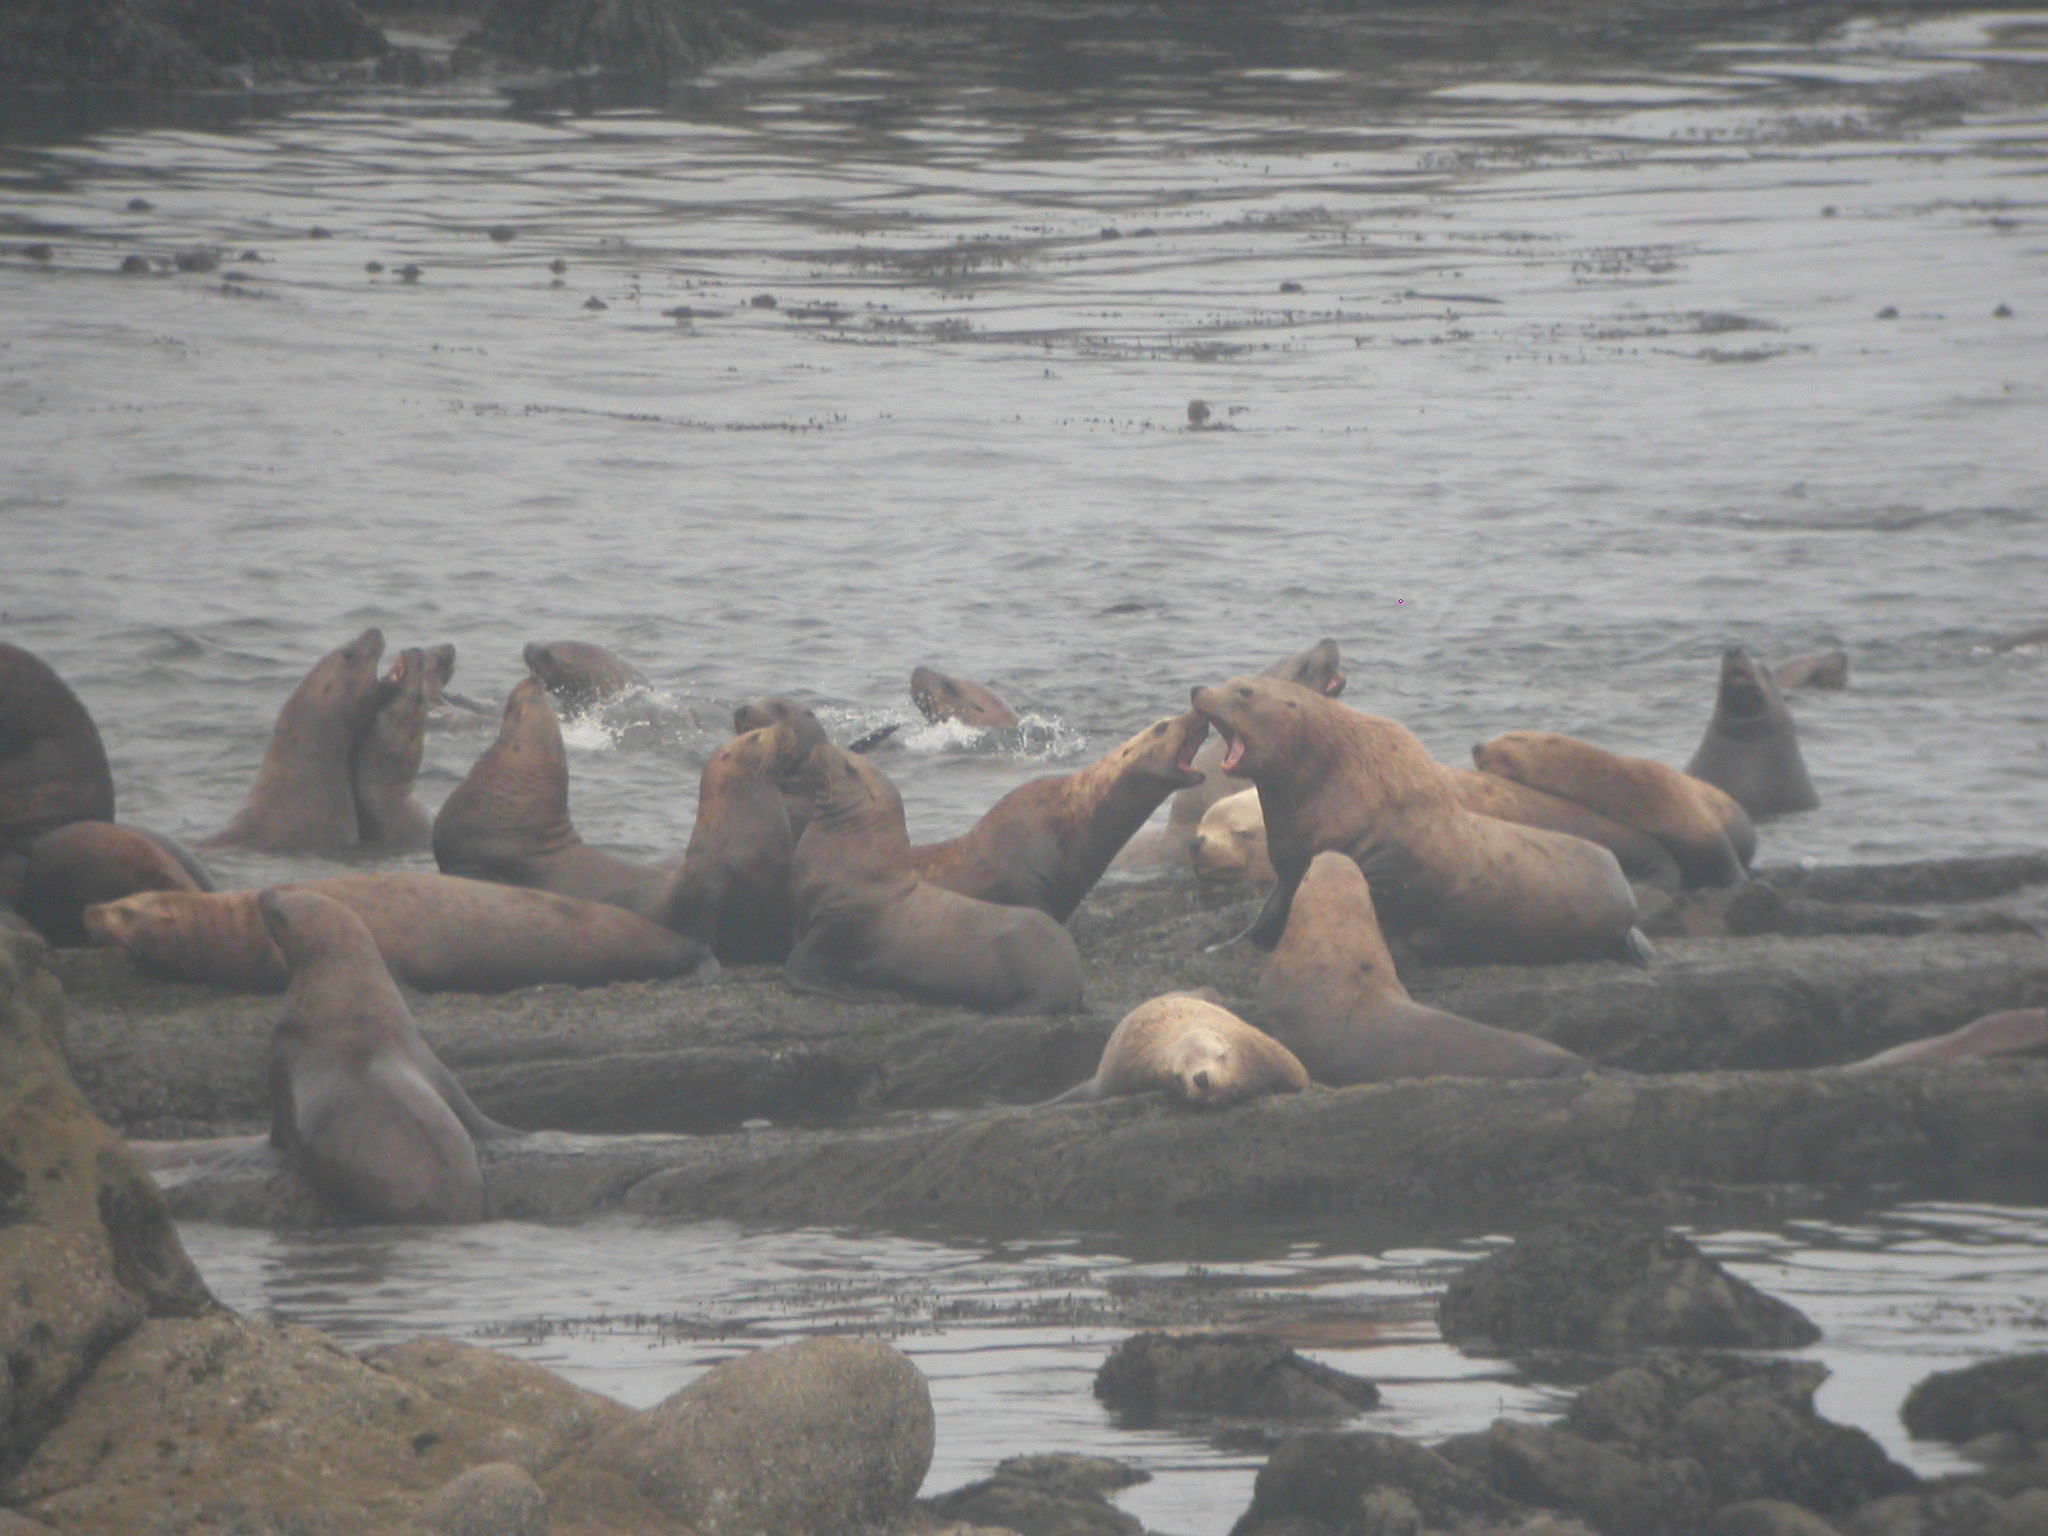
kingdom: Animalia
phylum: Chordata
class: Mammalia
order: Carnivora
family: Otariidae
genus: Eumetopias
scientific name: Eumetopias jubatus
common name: Steller sea lion
